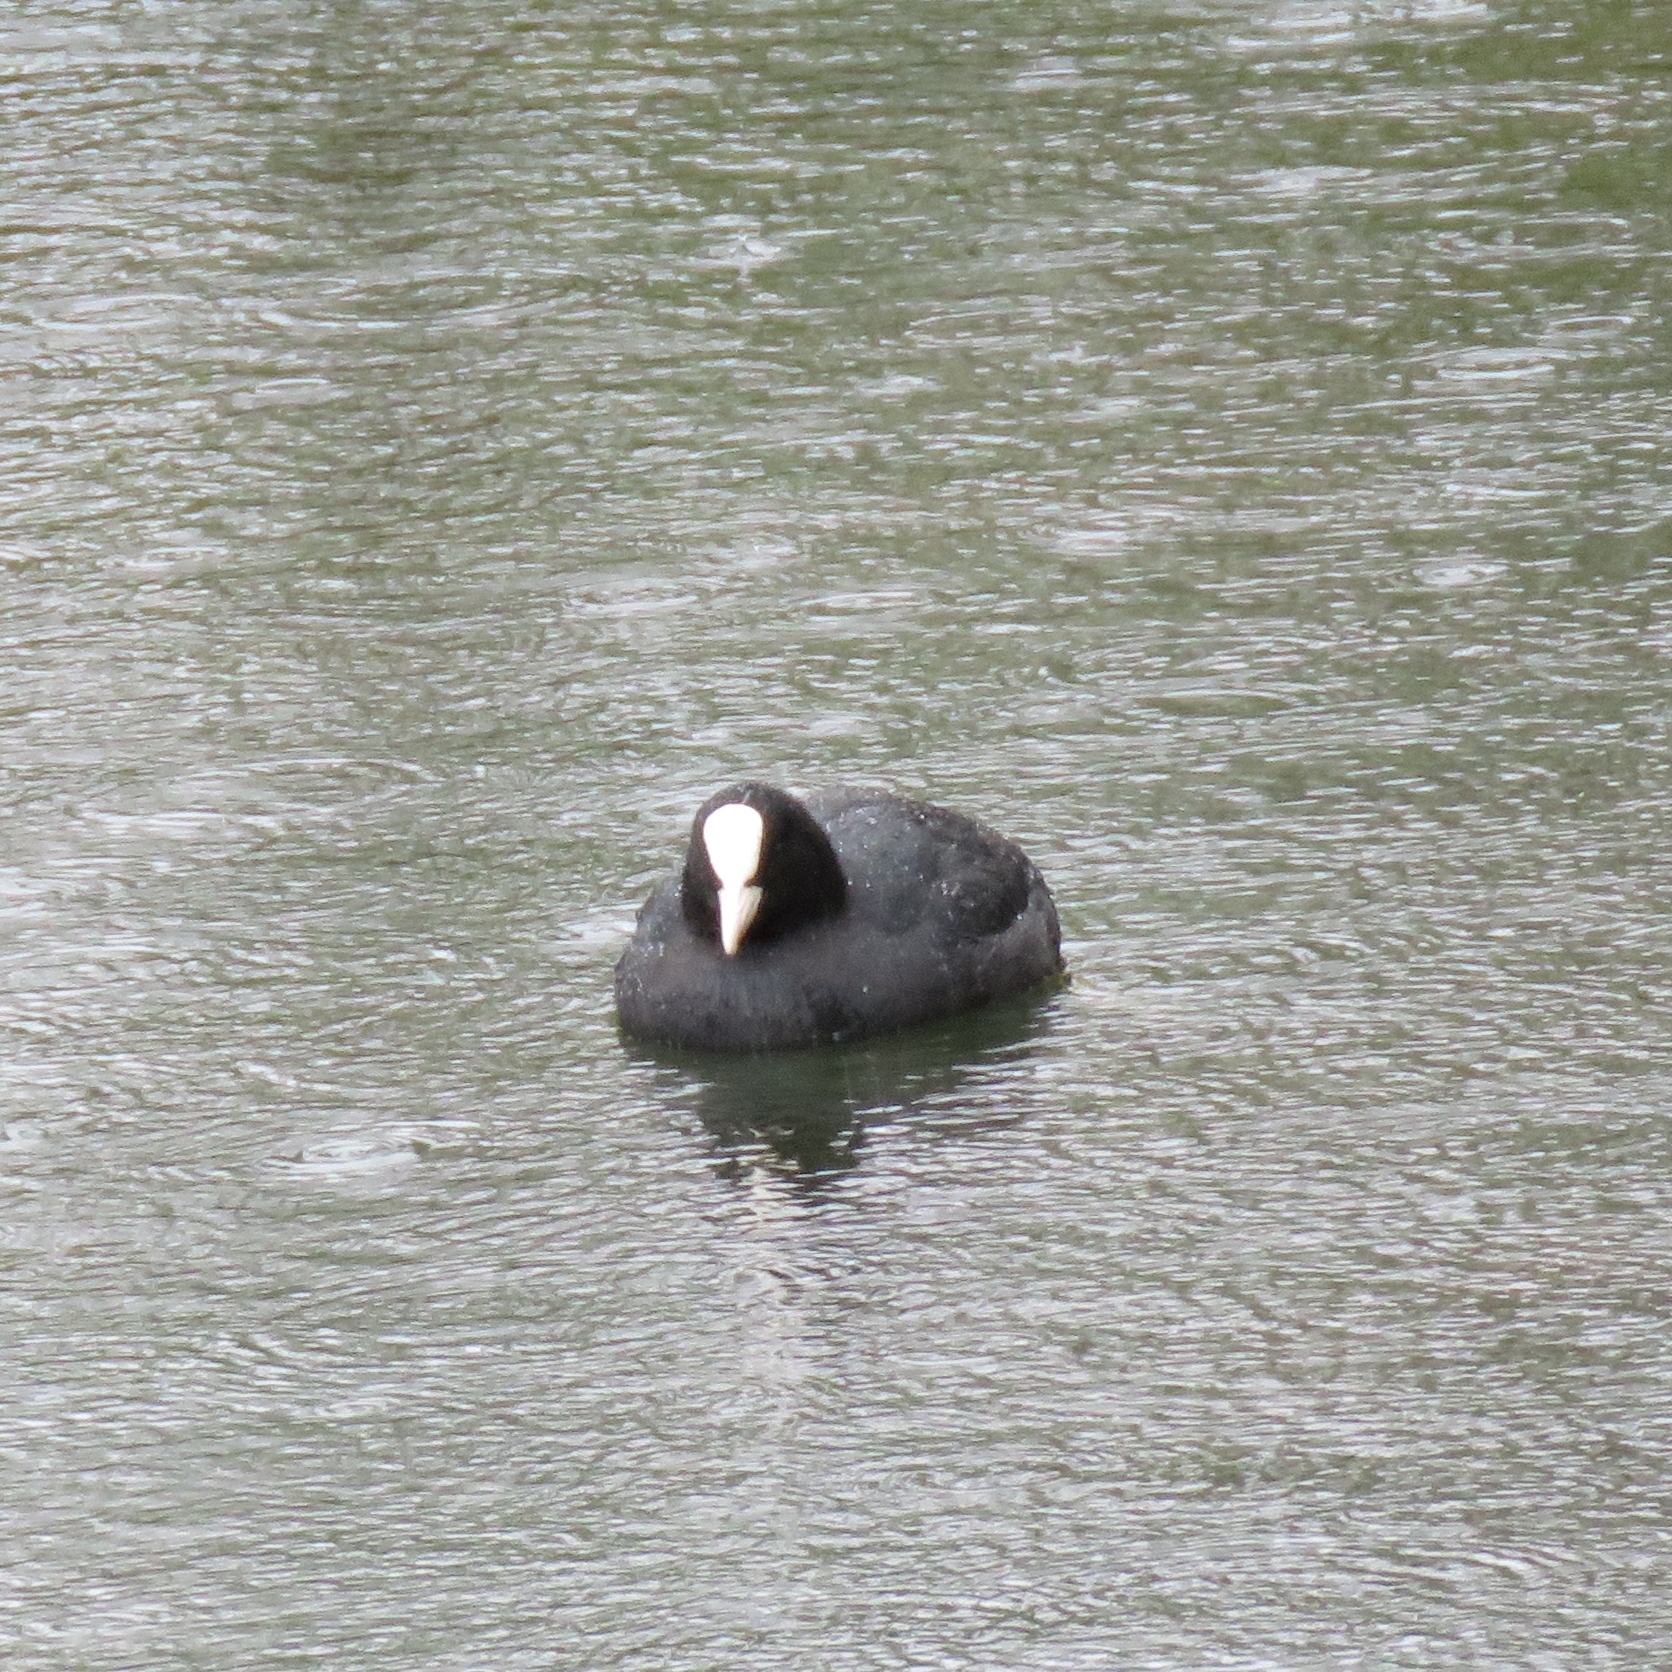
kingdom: Animalia
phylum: Chordata
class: Aves
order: Gruiformes
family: Rallidae
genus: Fulica
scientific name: Fulica atra
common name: Eurasian coot
